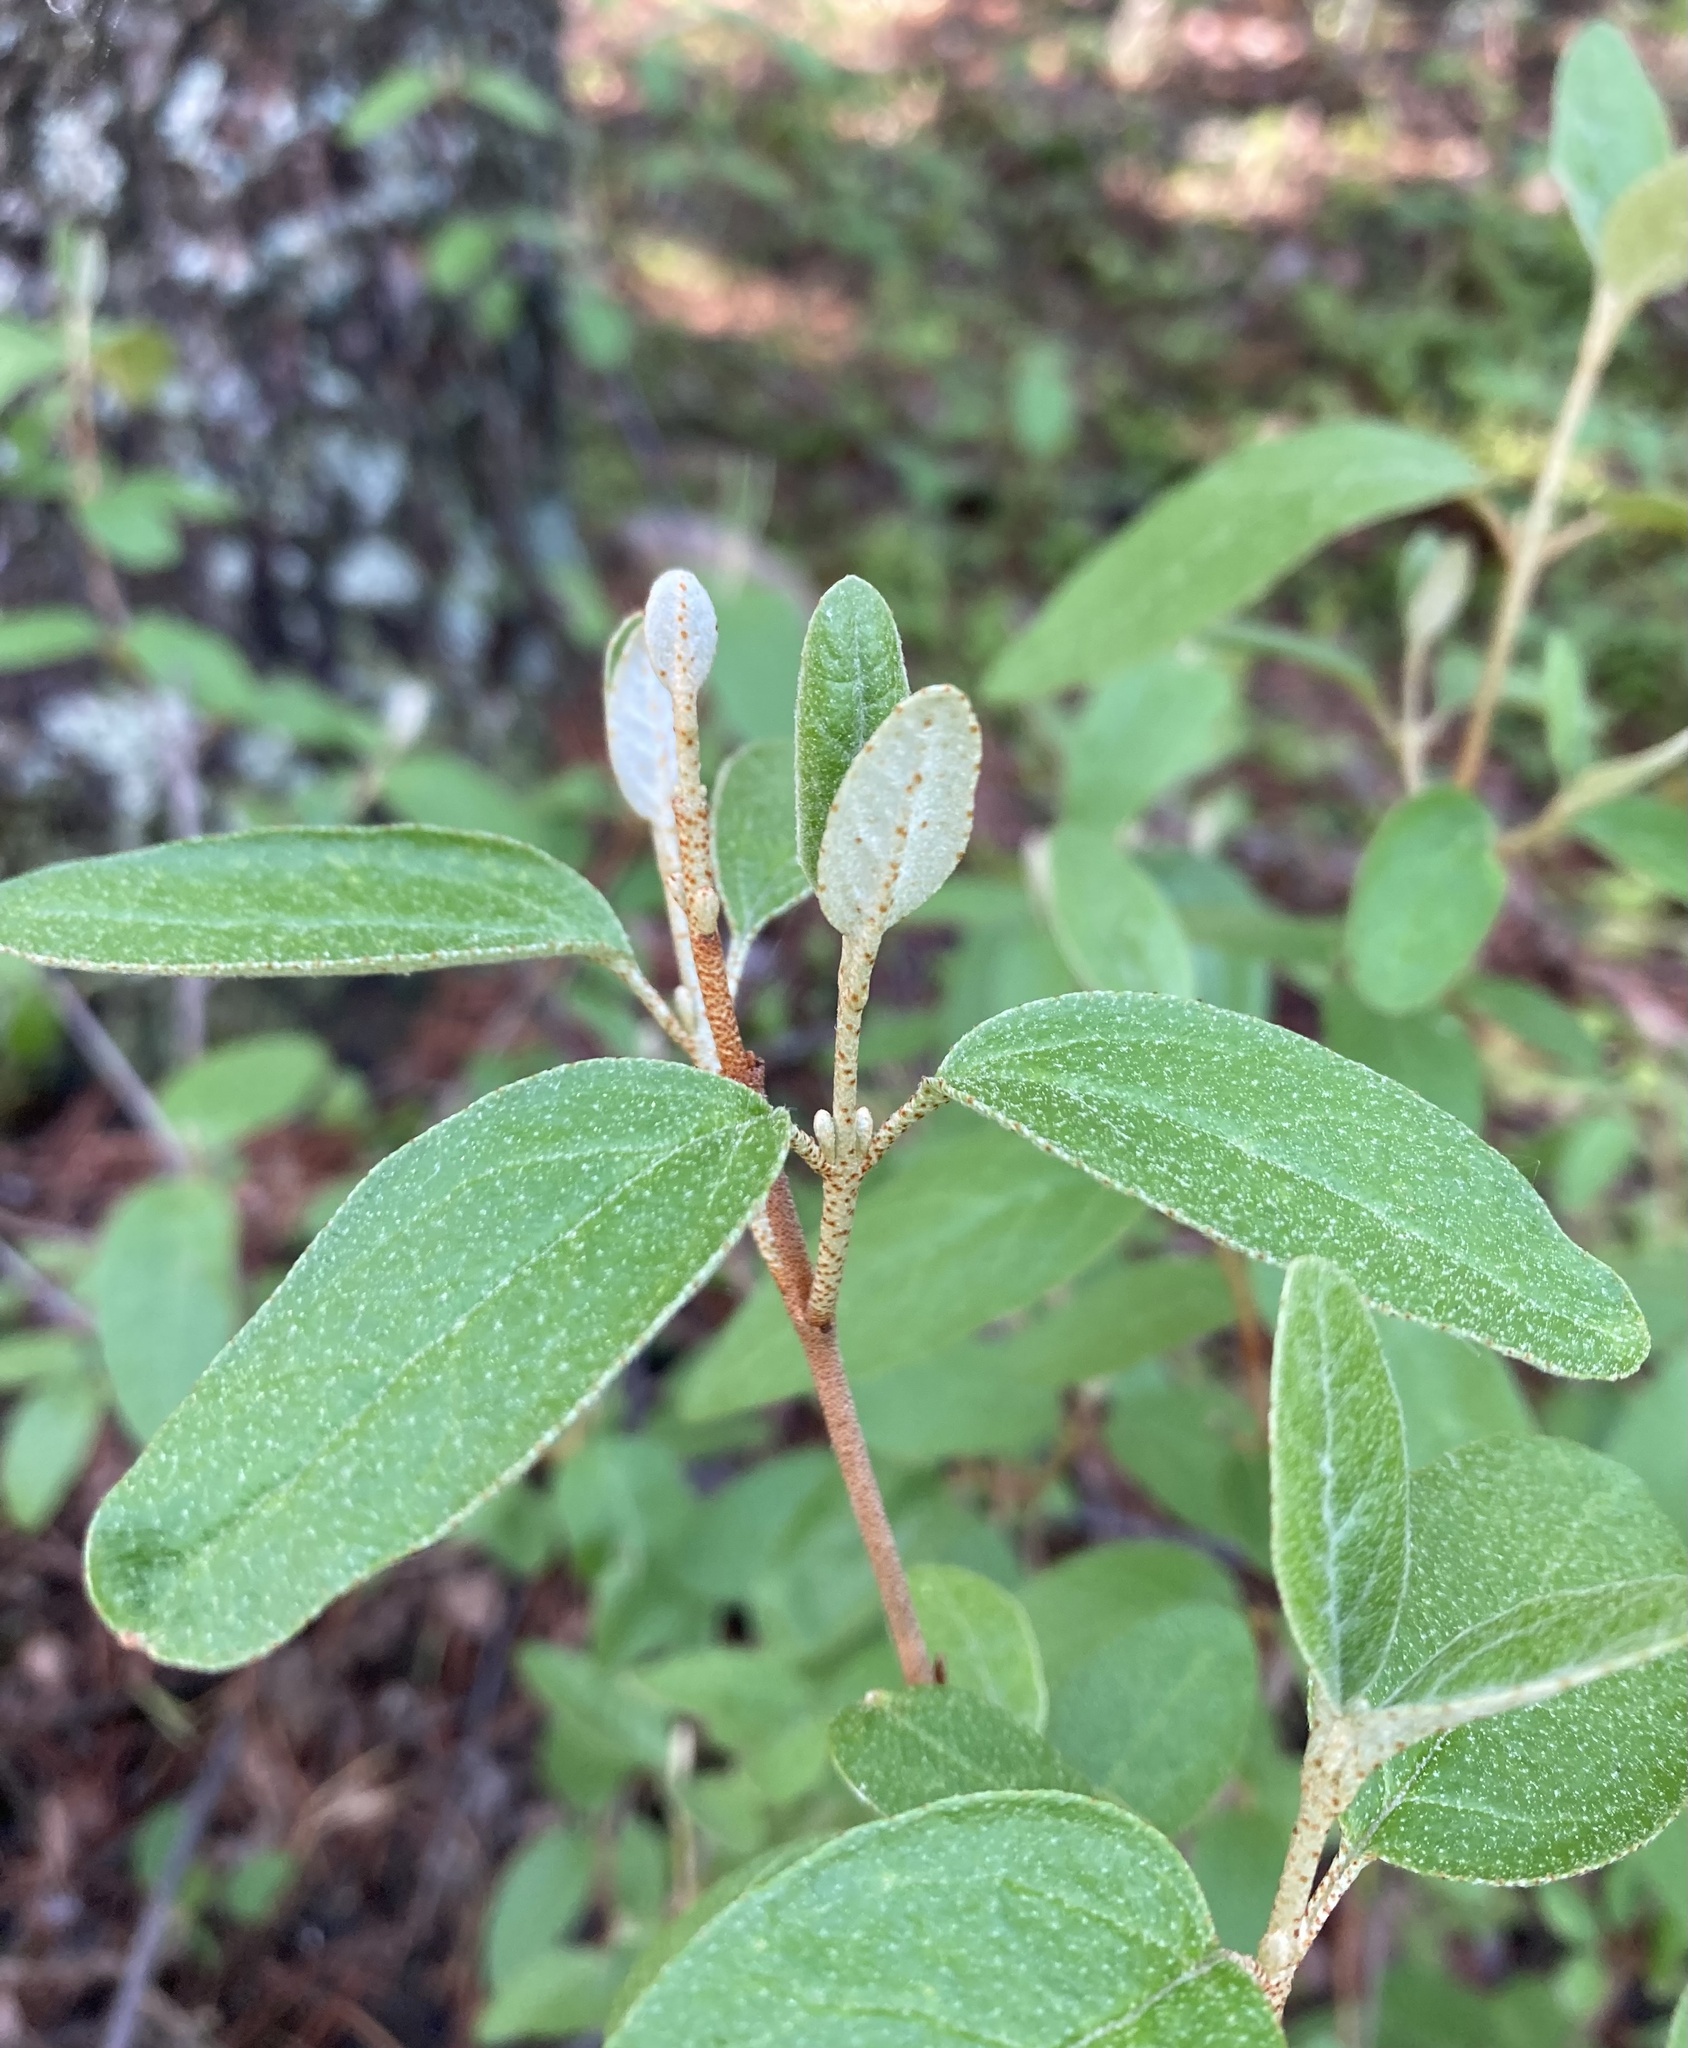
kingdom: Plantae
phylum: Tracheophyta
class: Magnoliopsida
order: Rosales
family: Elaeagnaceae
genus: Shepherdia
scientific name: Shepherdia canadensis
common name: Soapberry
